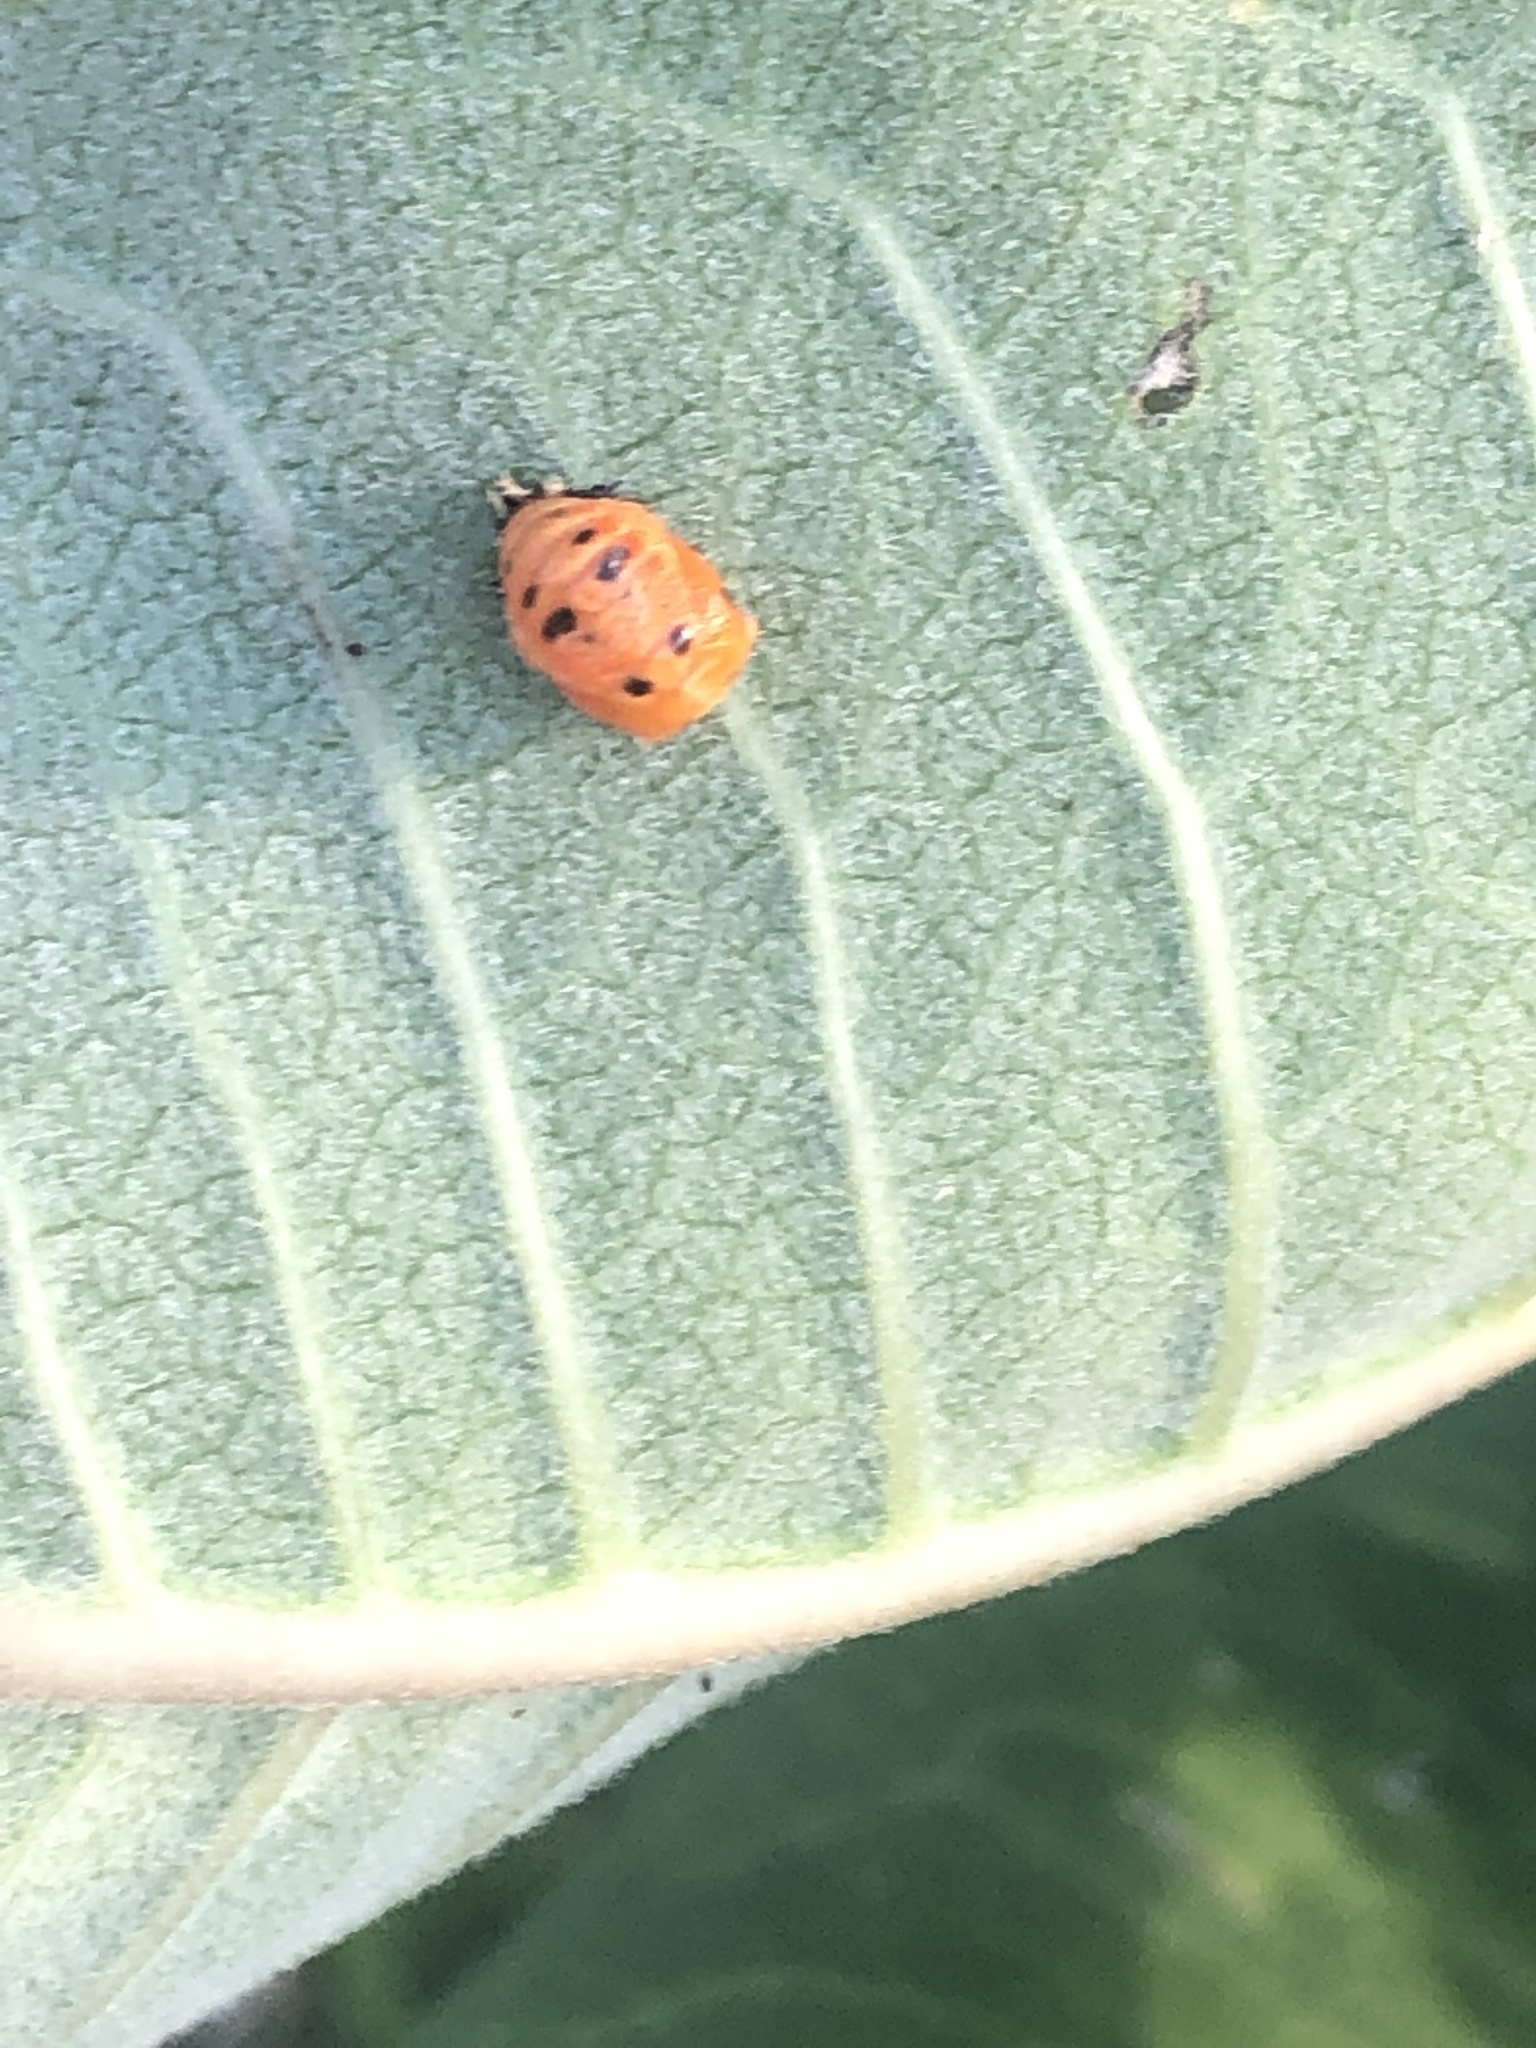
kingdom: Animalia
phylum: Arthropoda
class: Insecta
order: Coleoptera
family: Coccinellidae
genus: Harmonia
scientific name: Harmonia axyridis
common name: Harlequin ladybird
